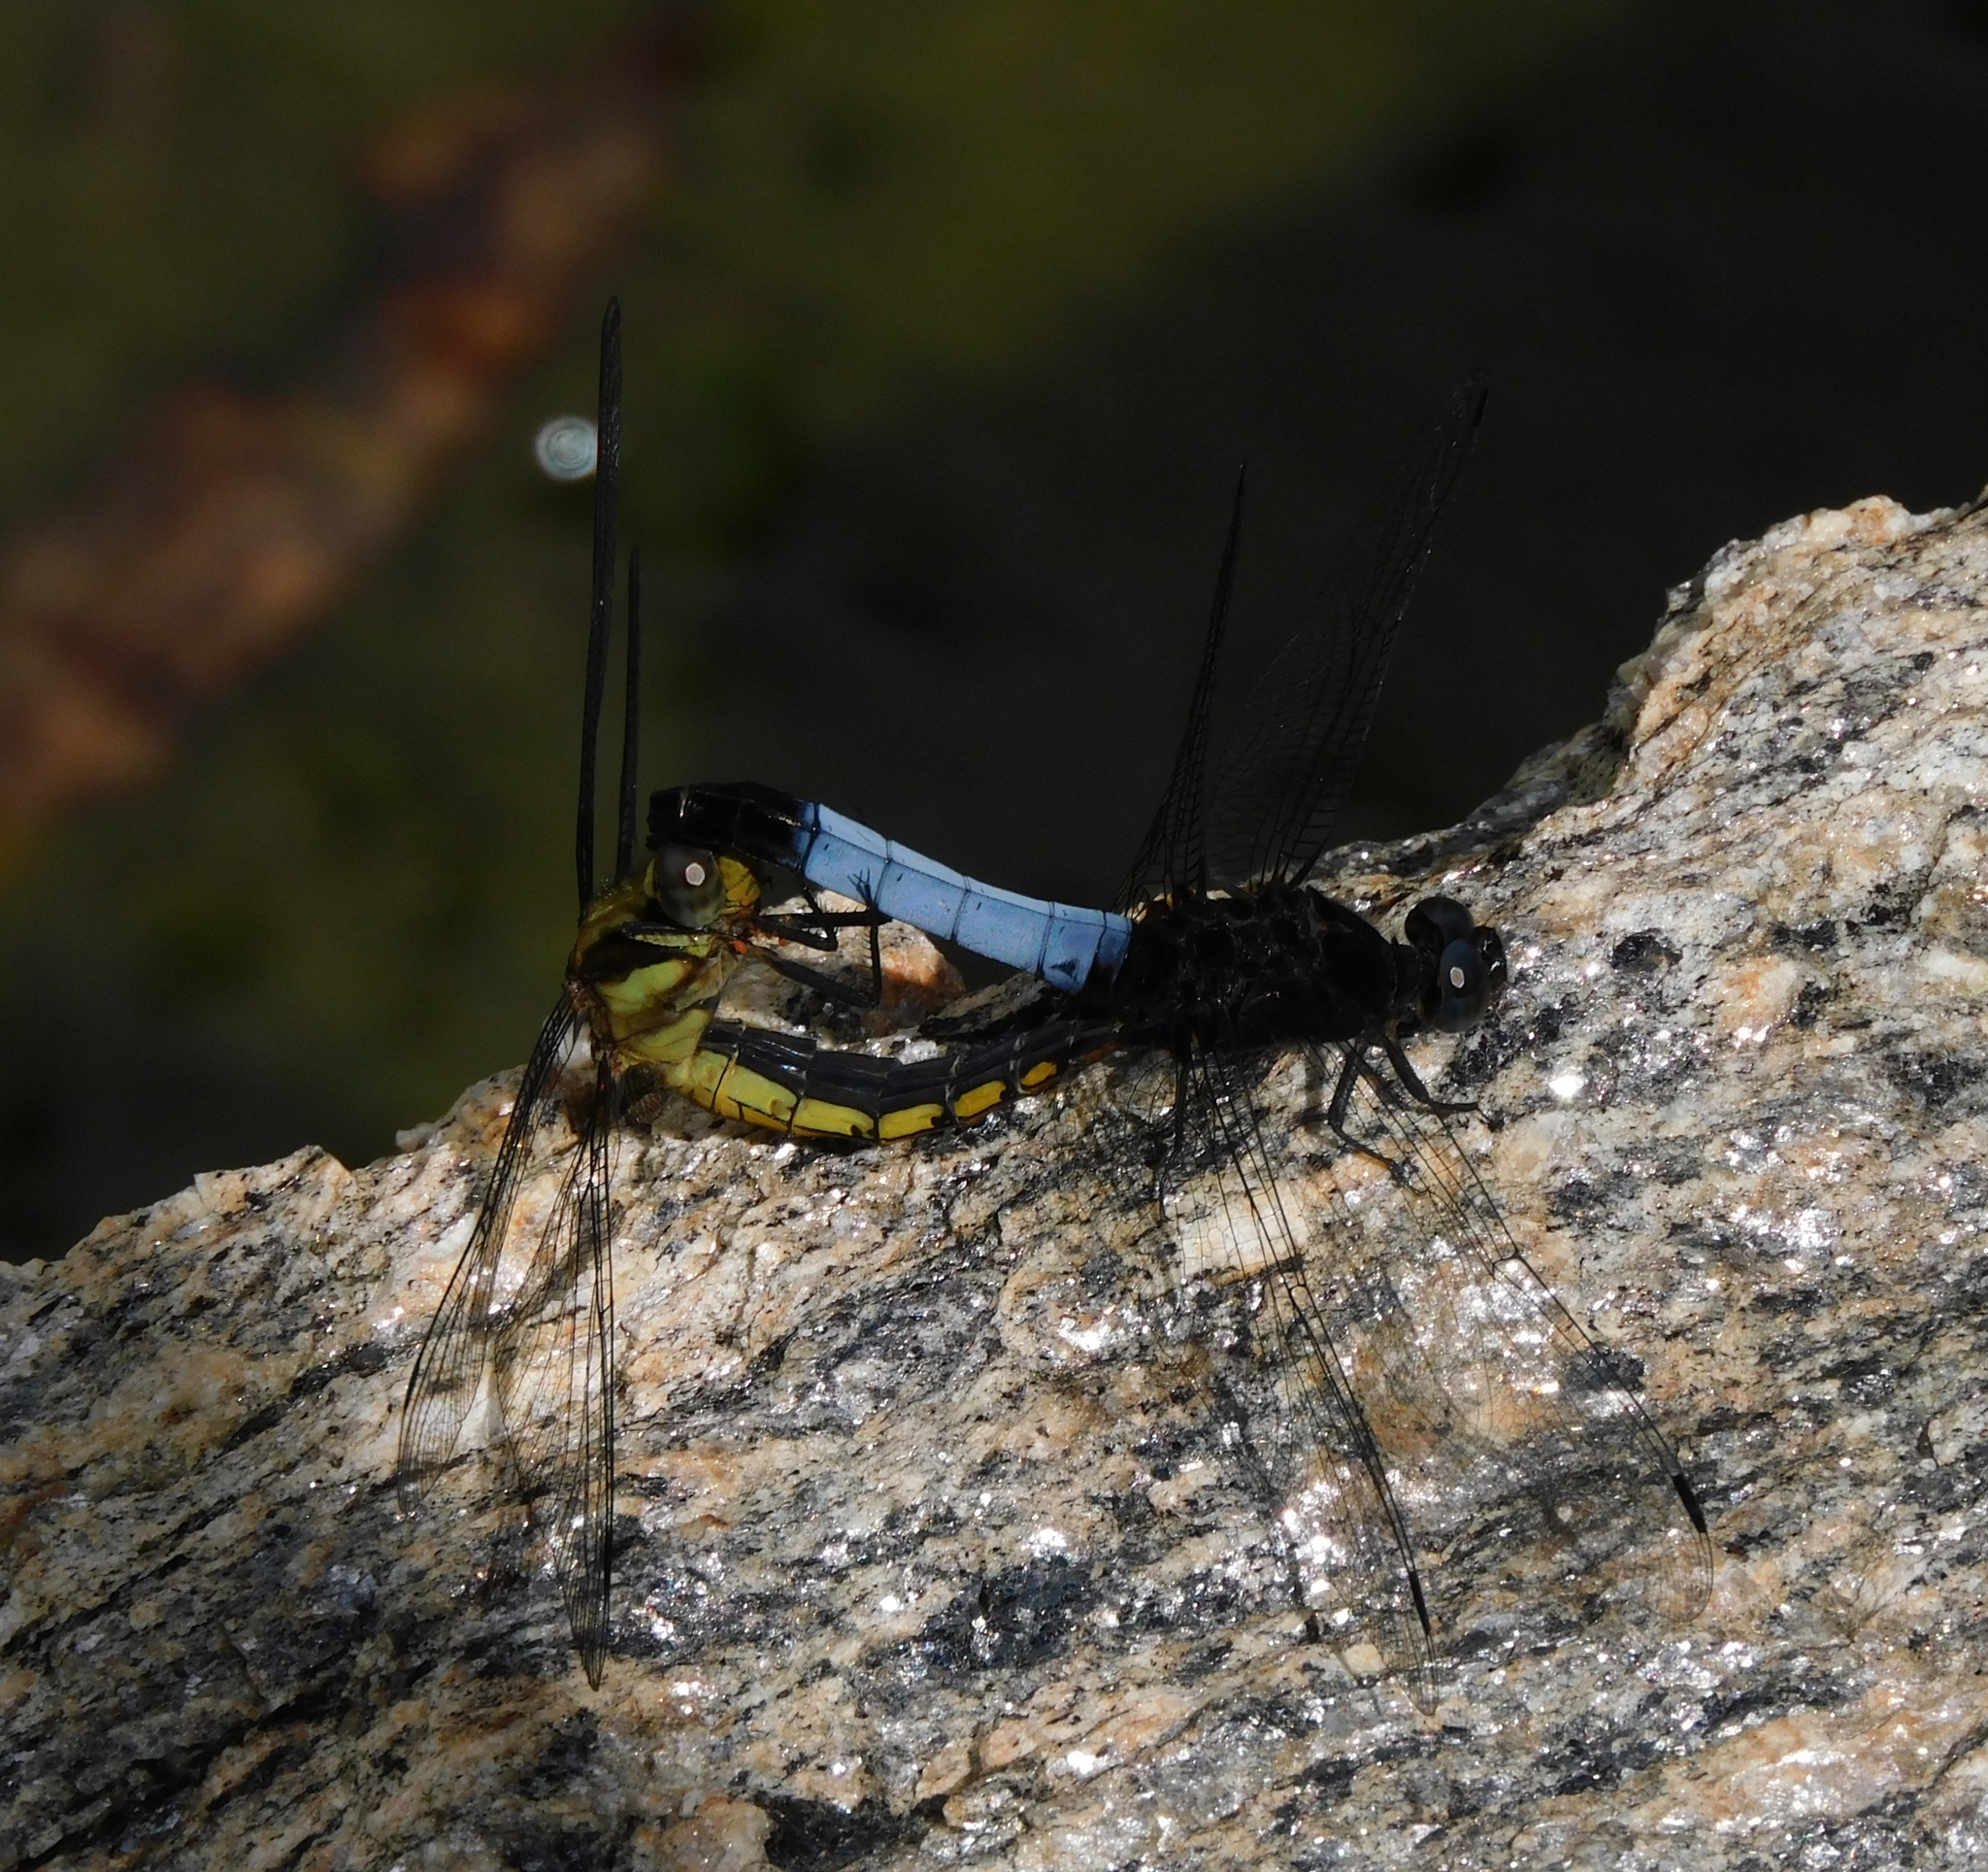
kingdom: Animalia
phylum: Arthropoda
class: Insecta
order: Odonata
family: Libellulidae
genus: Orthetrum
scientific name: Orthetrum triangulare
